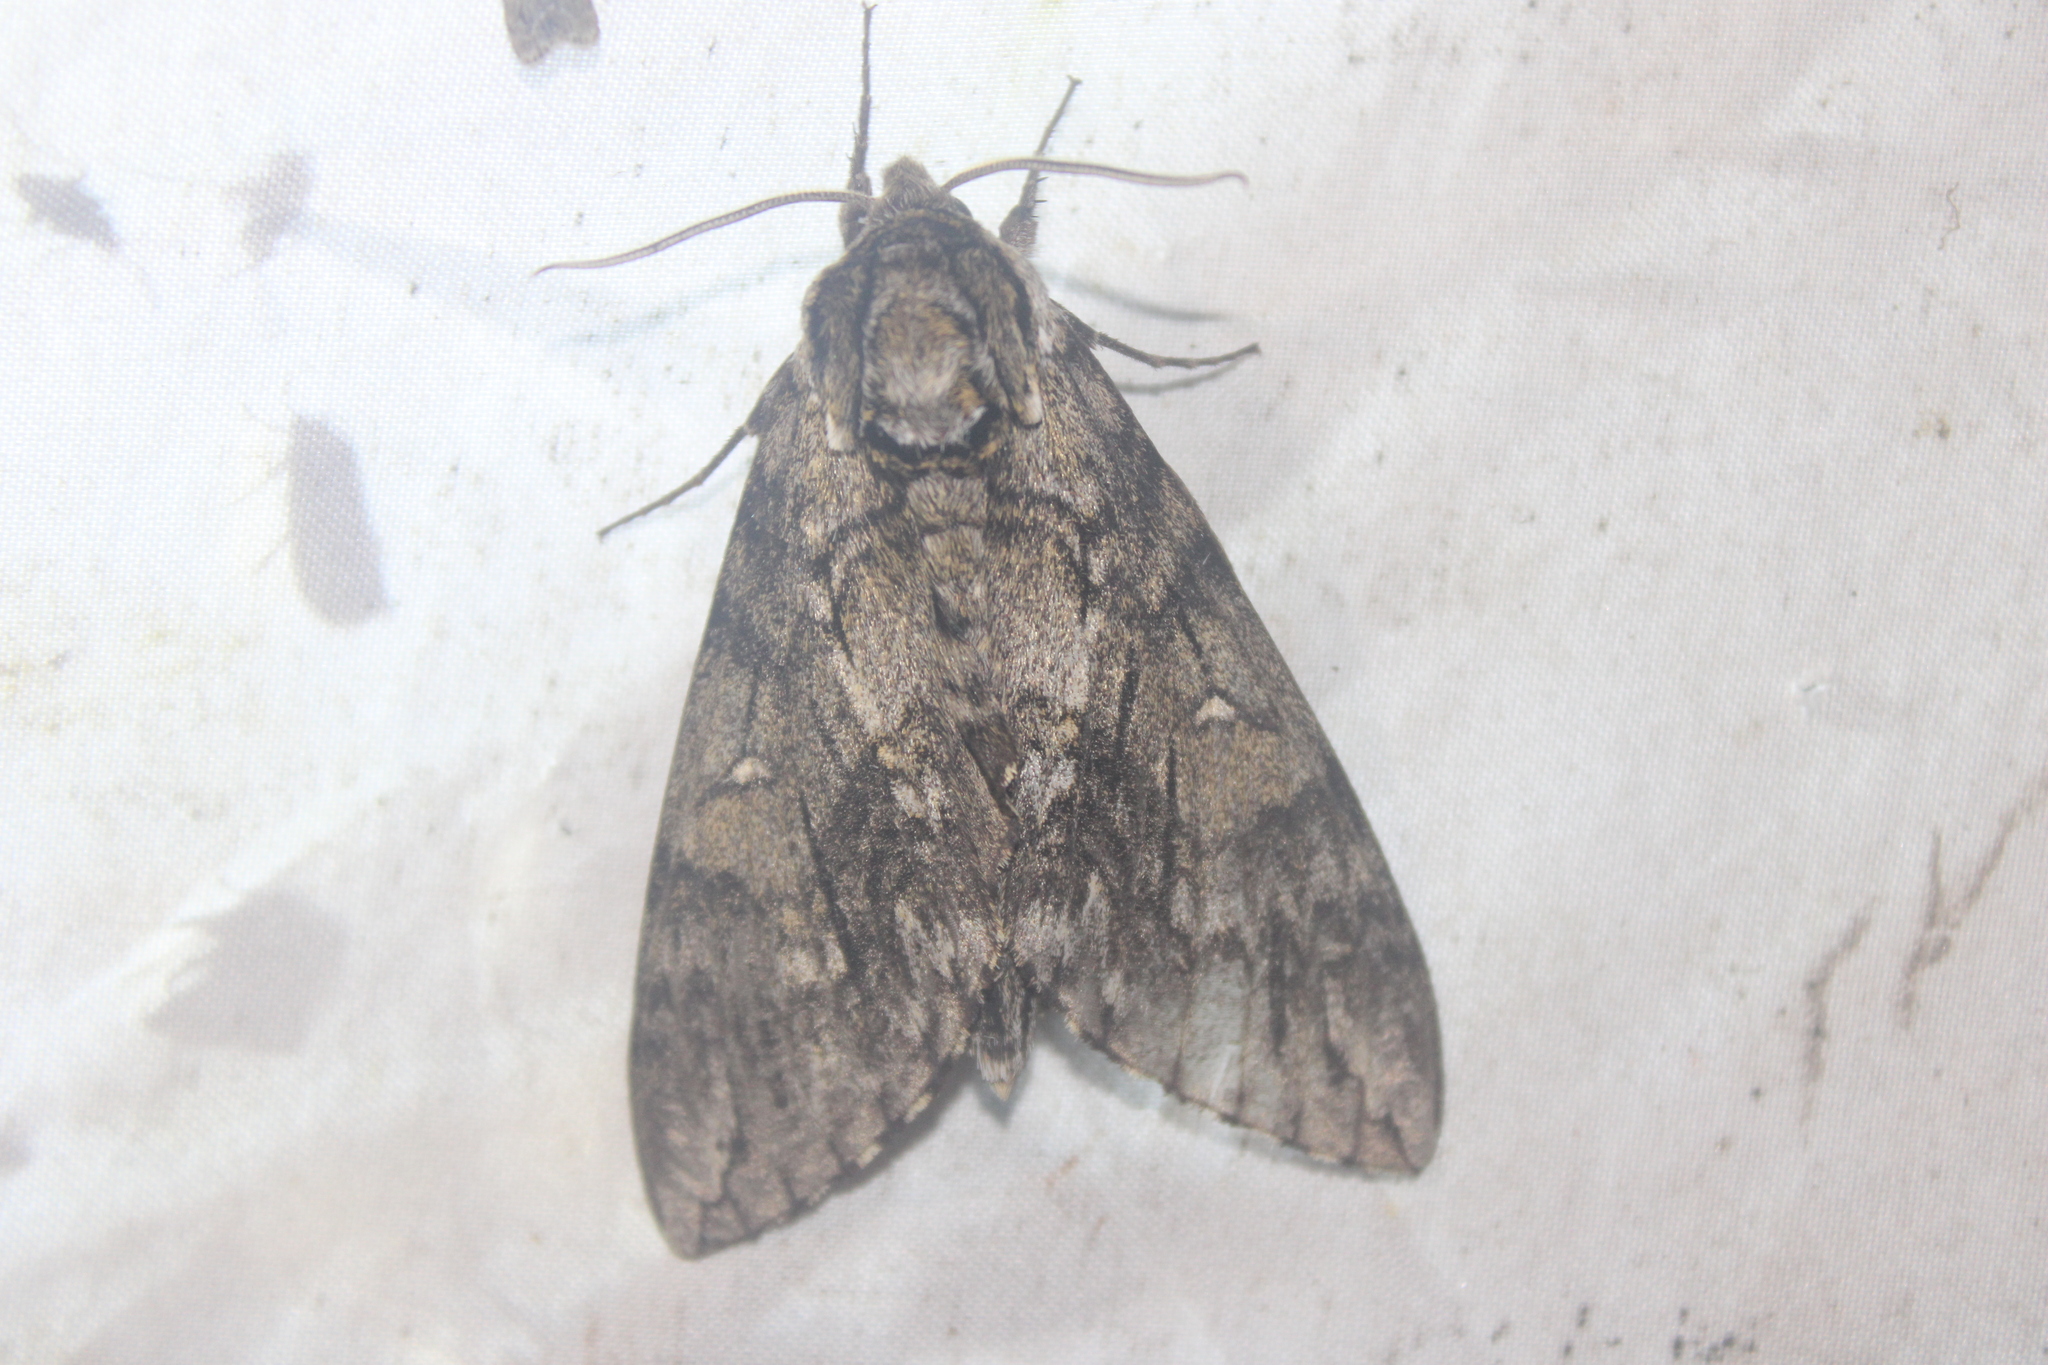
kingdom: Animalia
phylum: Arthropoda
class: Insecta
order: Lepidoptera
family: Sphingidae
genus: Ceratomia
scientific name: Ceratomia undulosa
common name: Waved sphinx
